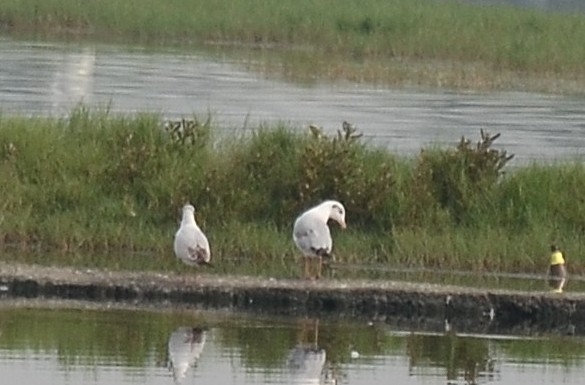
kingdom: Animalia
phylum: Chordata
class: Aves
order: Charadriiformes
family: Laridae
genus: Chroicocephalus
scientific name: Chroicocephalus brunnicephalus
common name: Brown-headed gull
